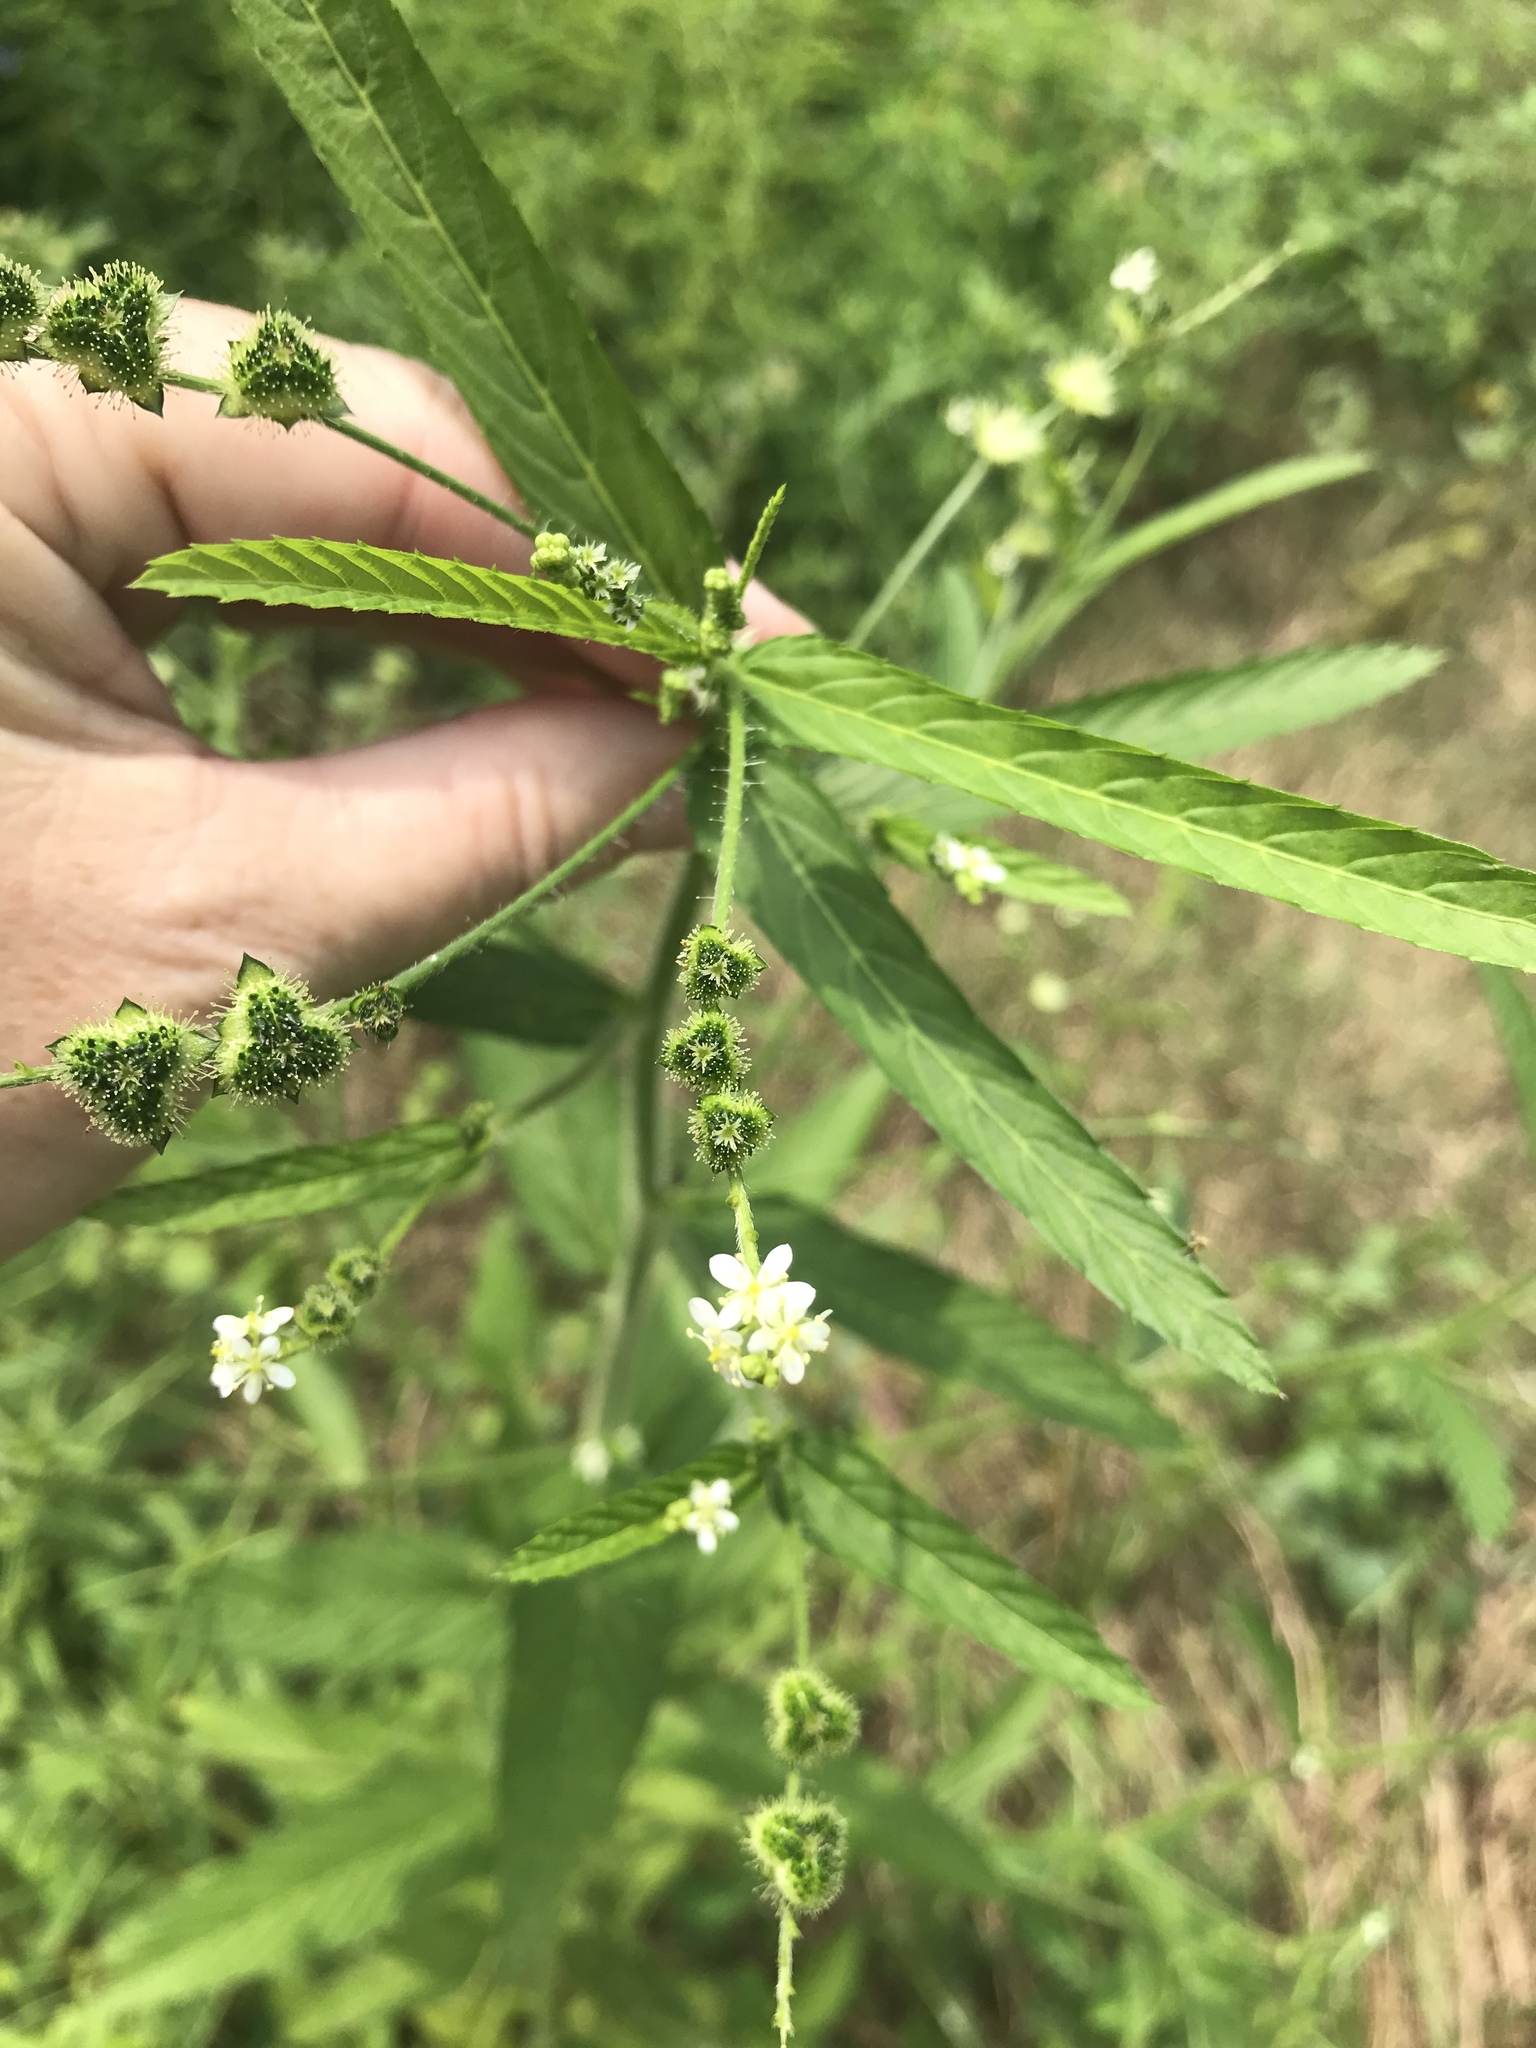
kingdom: Plantae
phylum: Tracheophyta
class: Magnoliopsida
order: Malpighiales
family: Euphorbiaceae
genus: Caperonia
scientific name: Caperonia palustris
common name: Sacatrapo
